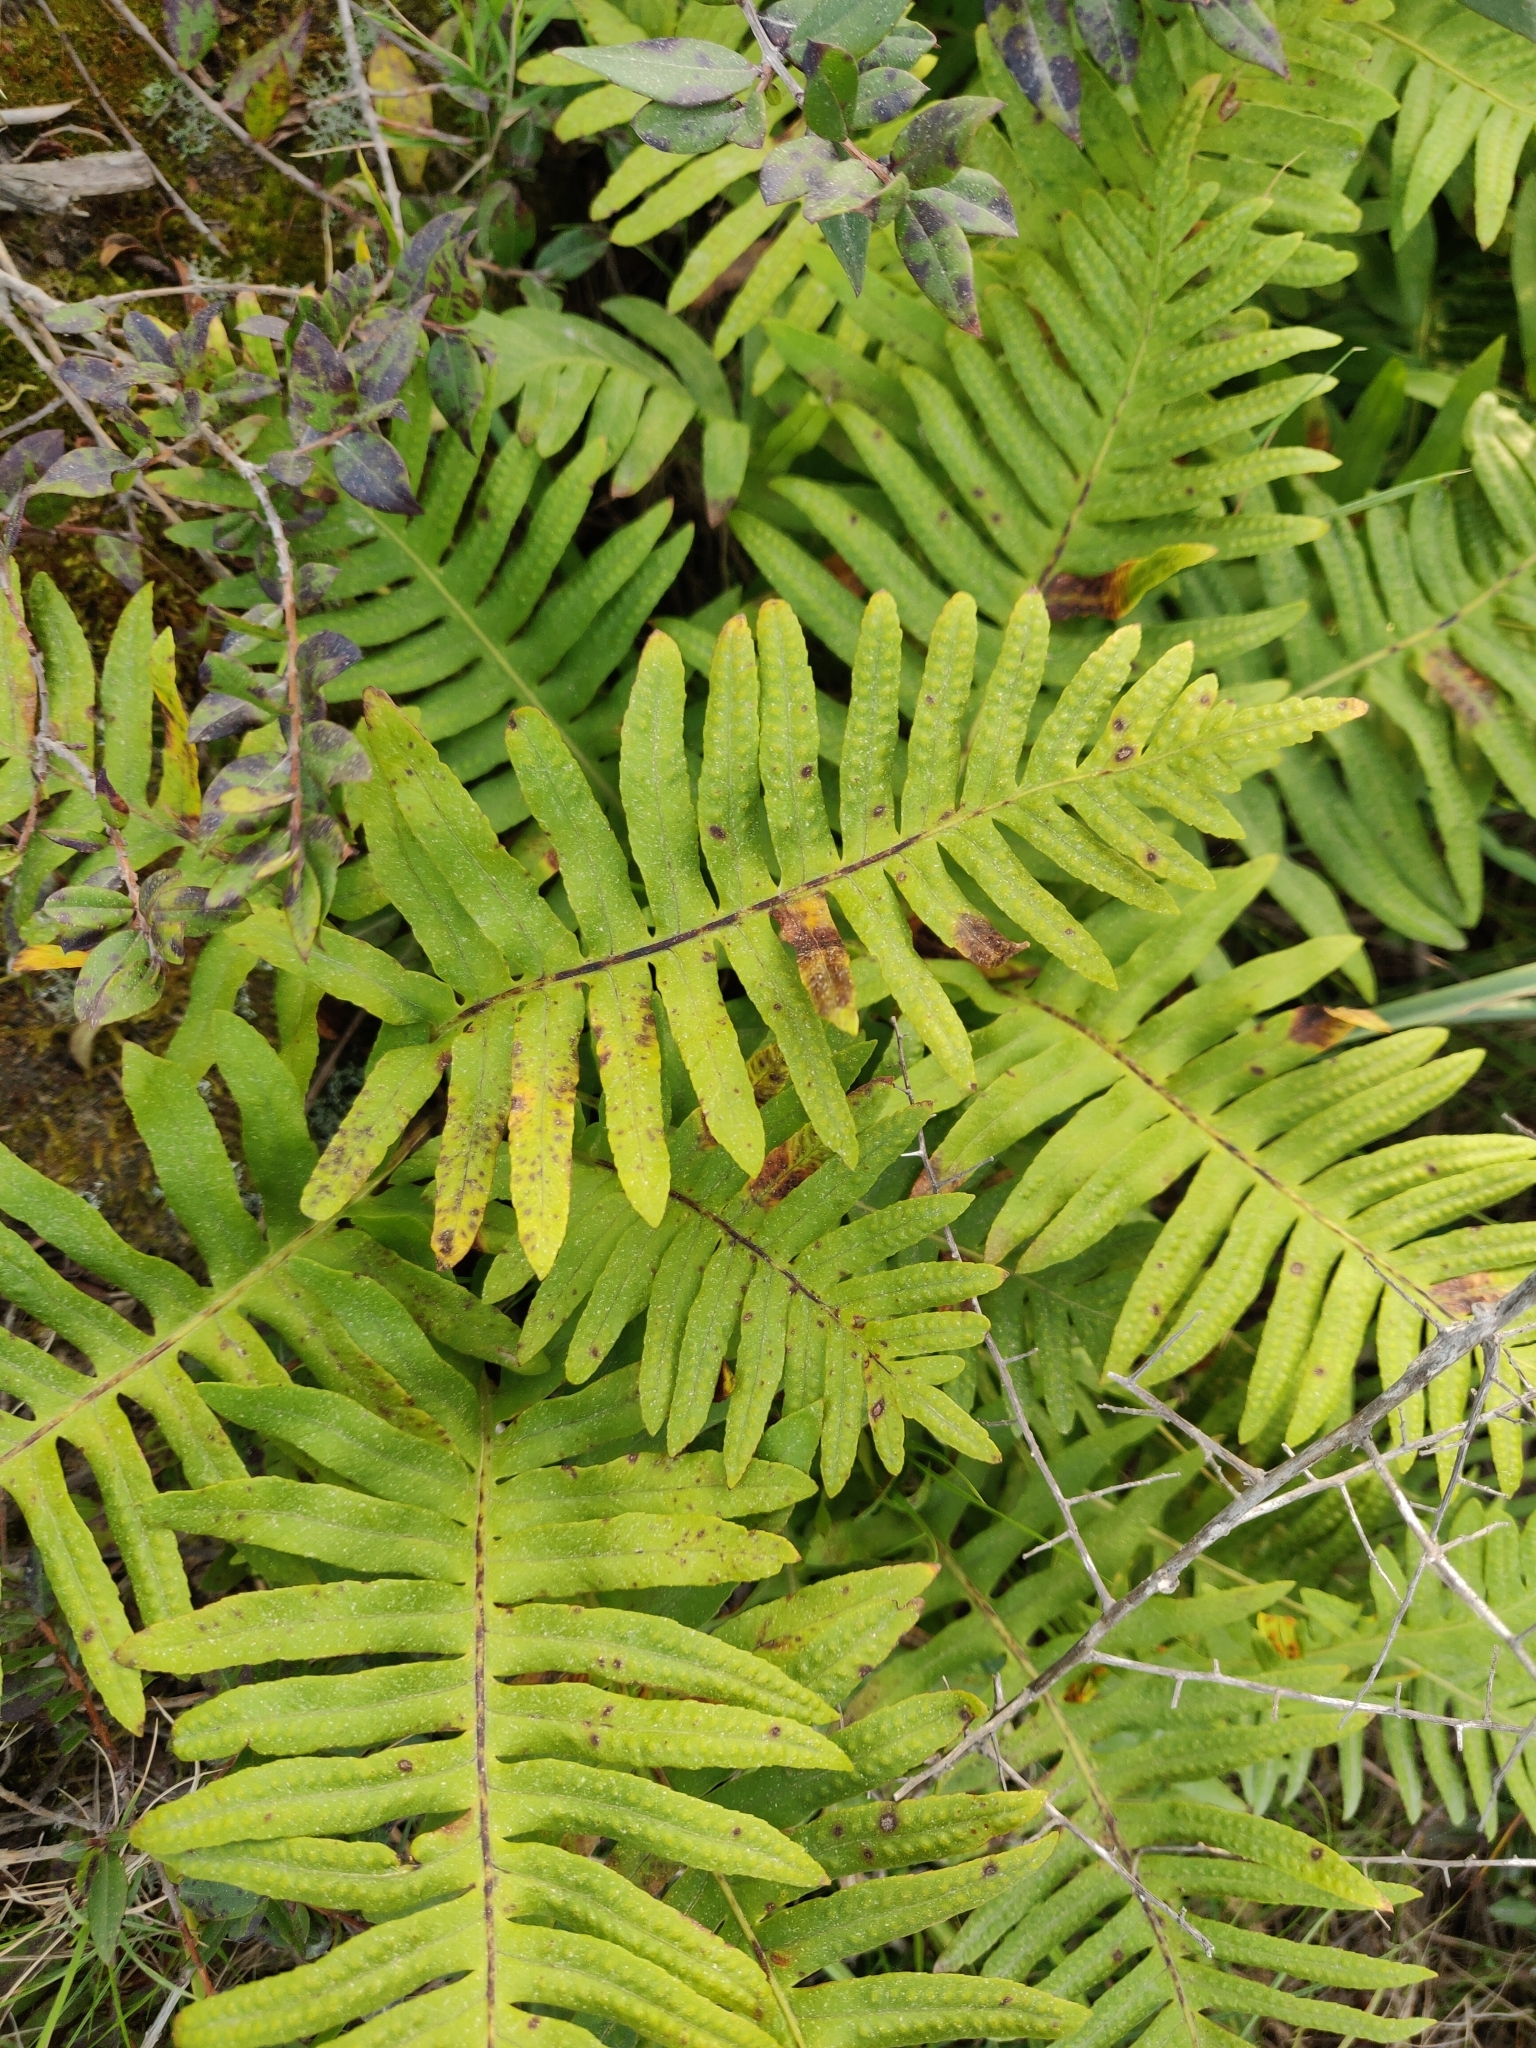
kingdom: Plantae
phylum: Tracheophyta
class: Polypodiopsida
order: Polypodiales
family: Polypodiaceae
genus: Polypodium
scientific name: Polypodium cambricum
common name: Southern polypody
